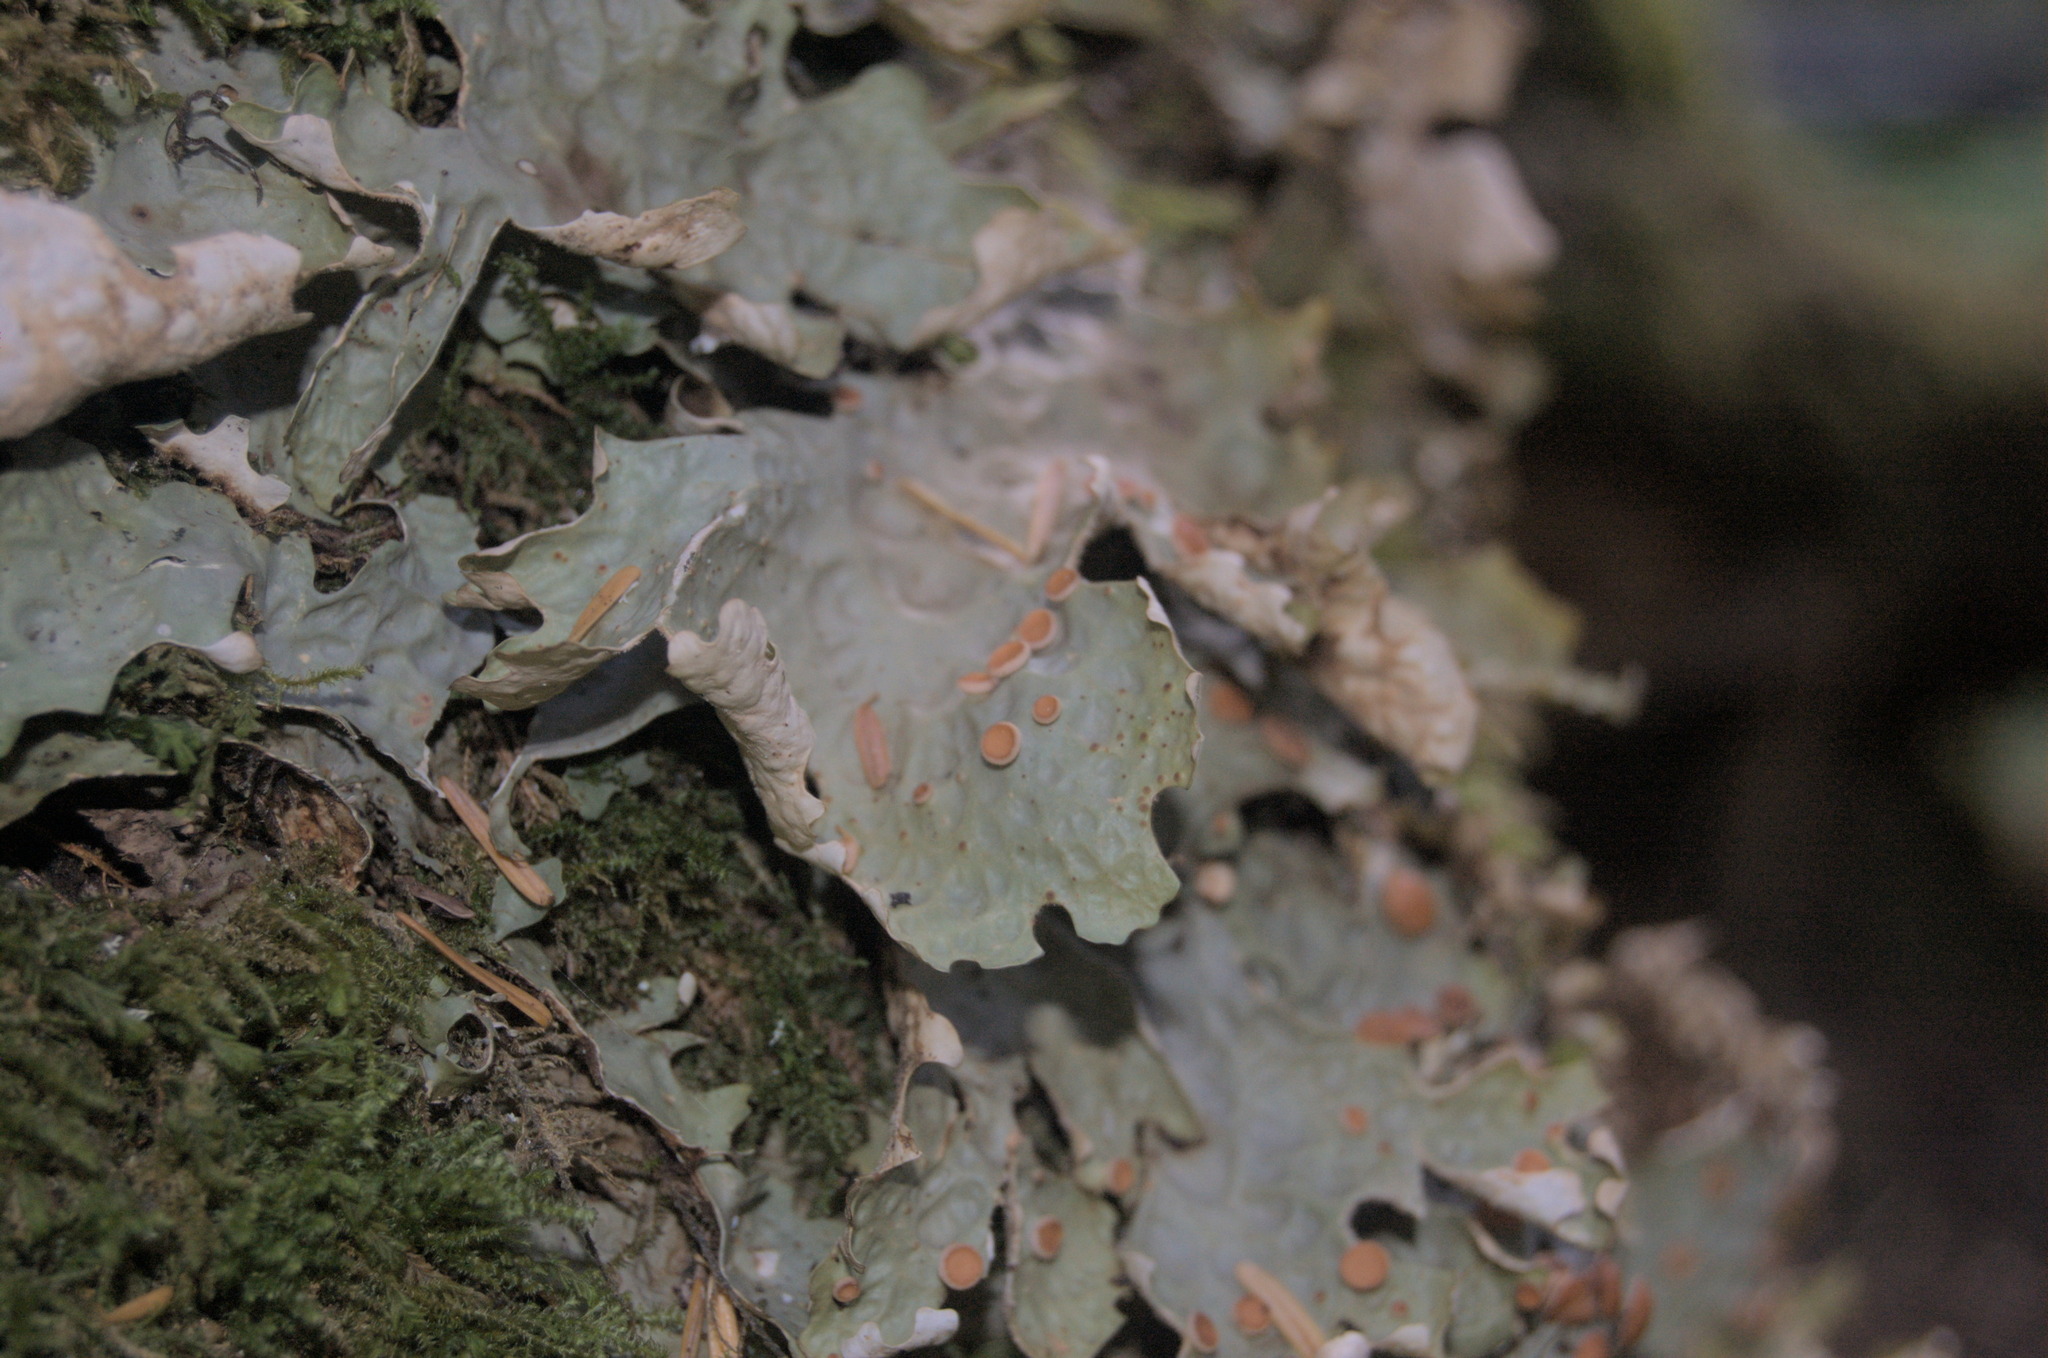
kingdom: Fungi
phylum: Ascomycota
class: Lecanoromycetes
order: Peltigerales
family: Lobariaceae
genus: Lobaria
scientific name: Lobaria linita
